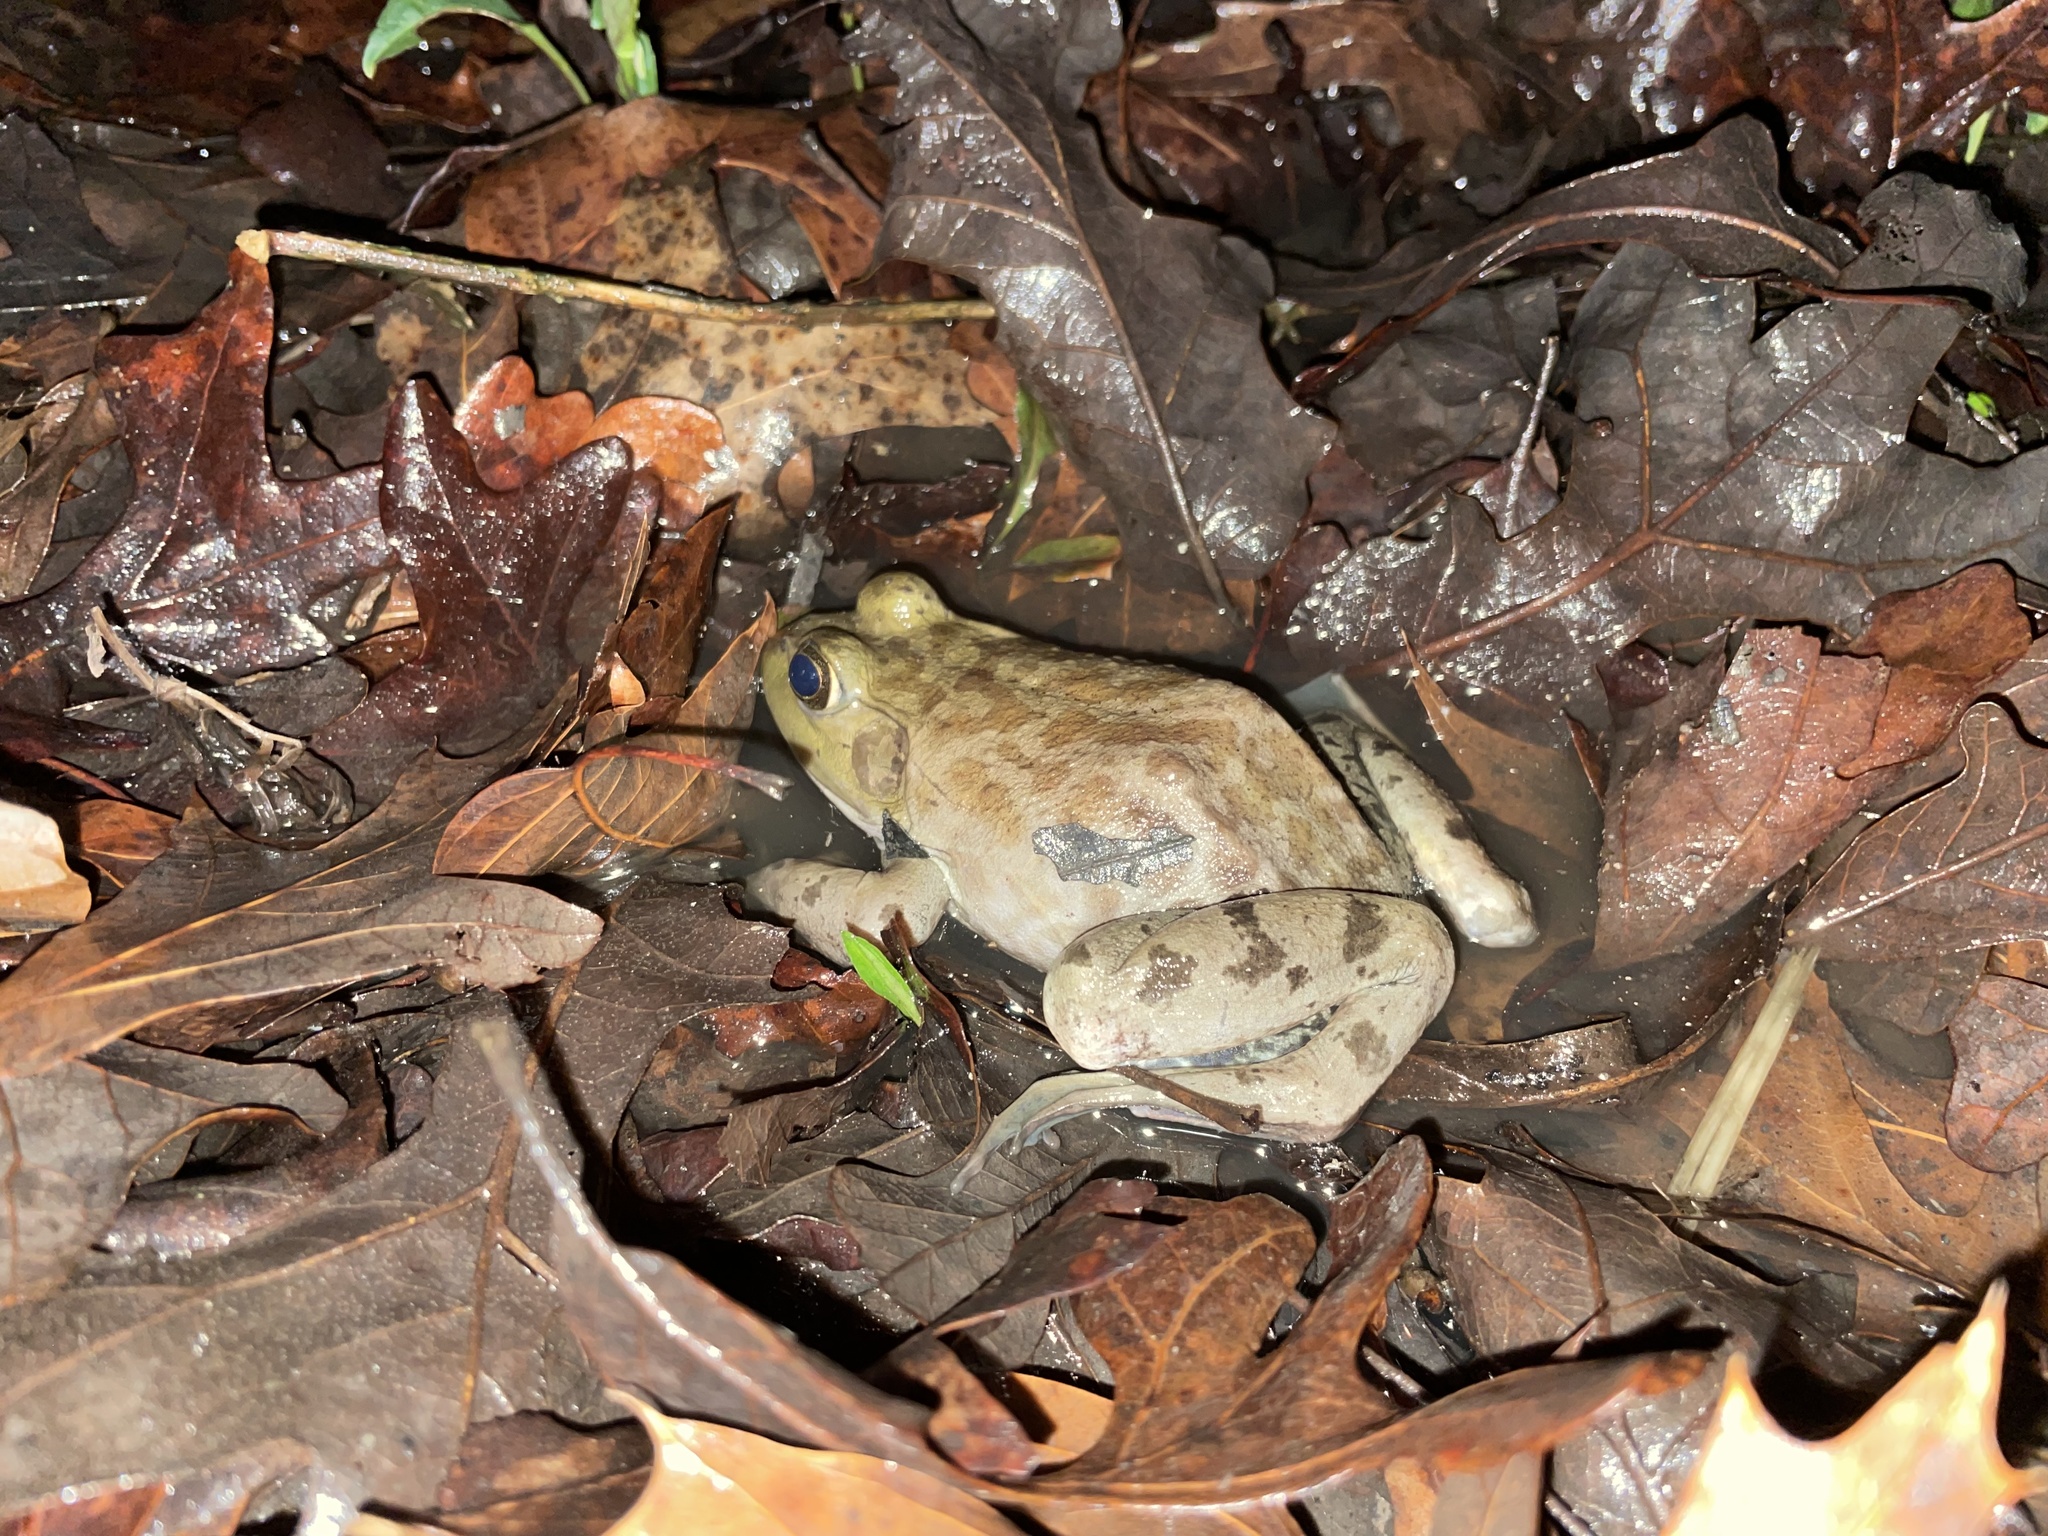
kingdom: Animalia
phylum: Chordata
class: Amphibia
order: Anura
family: Ranidae
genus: Lithobates
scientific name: Lithobates catesbeianus
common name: American bullfrog
